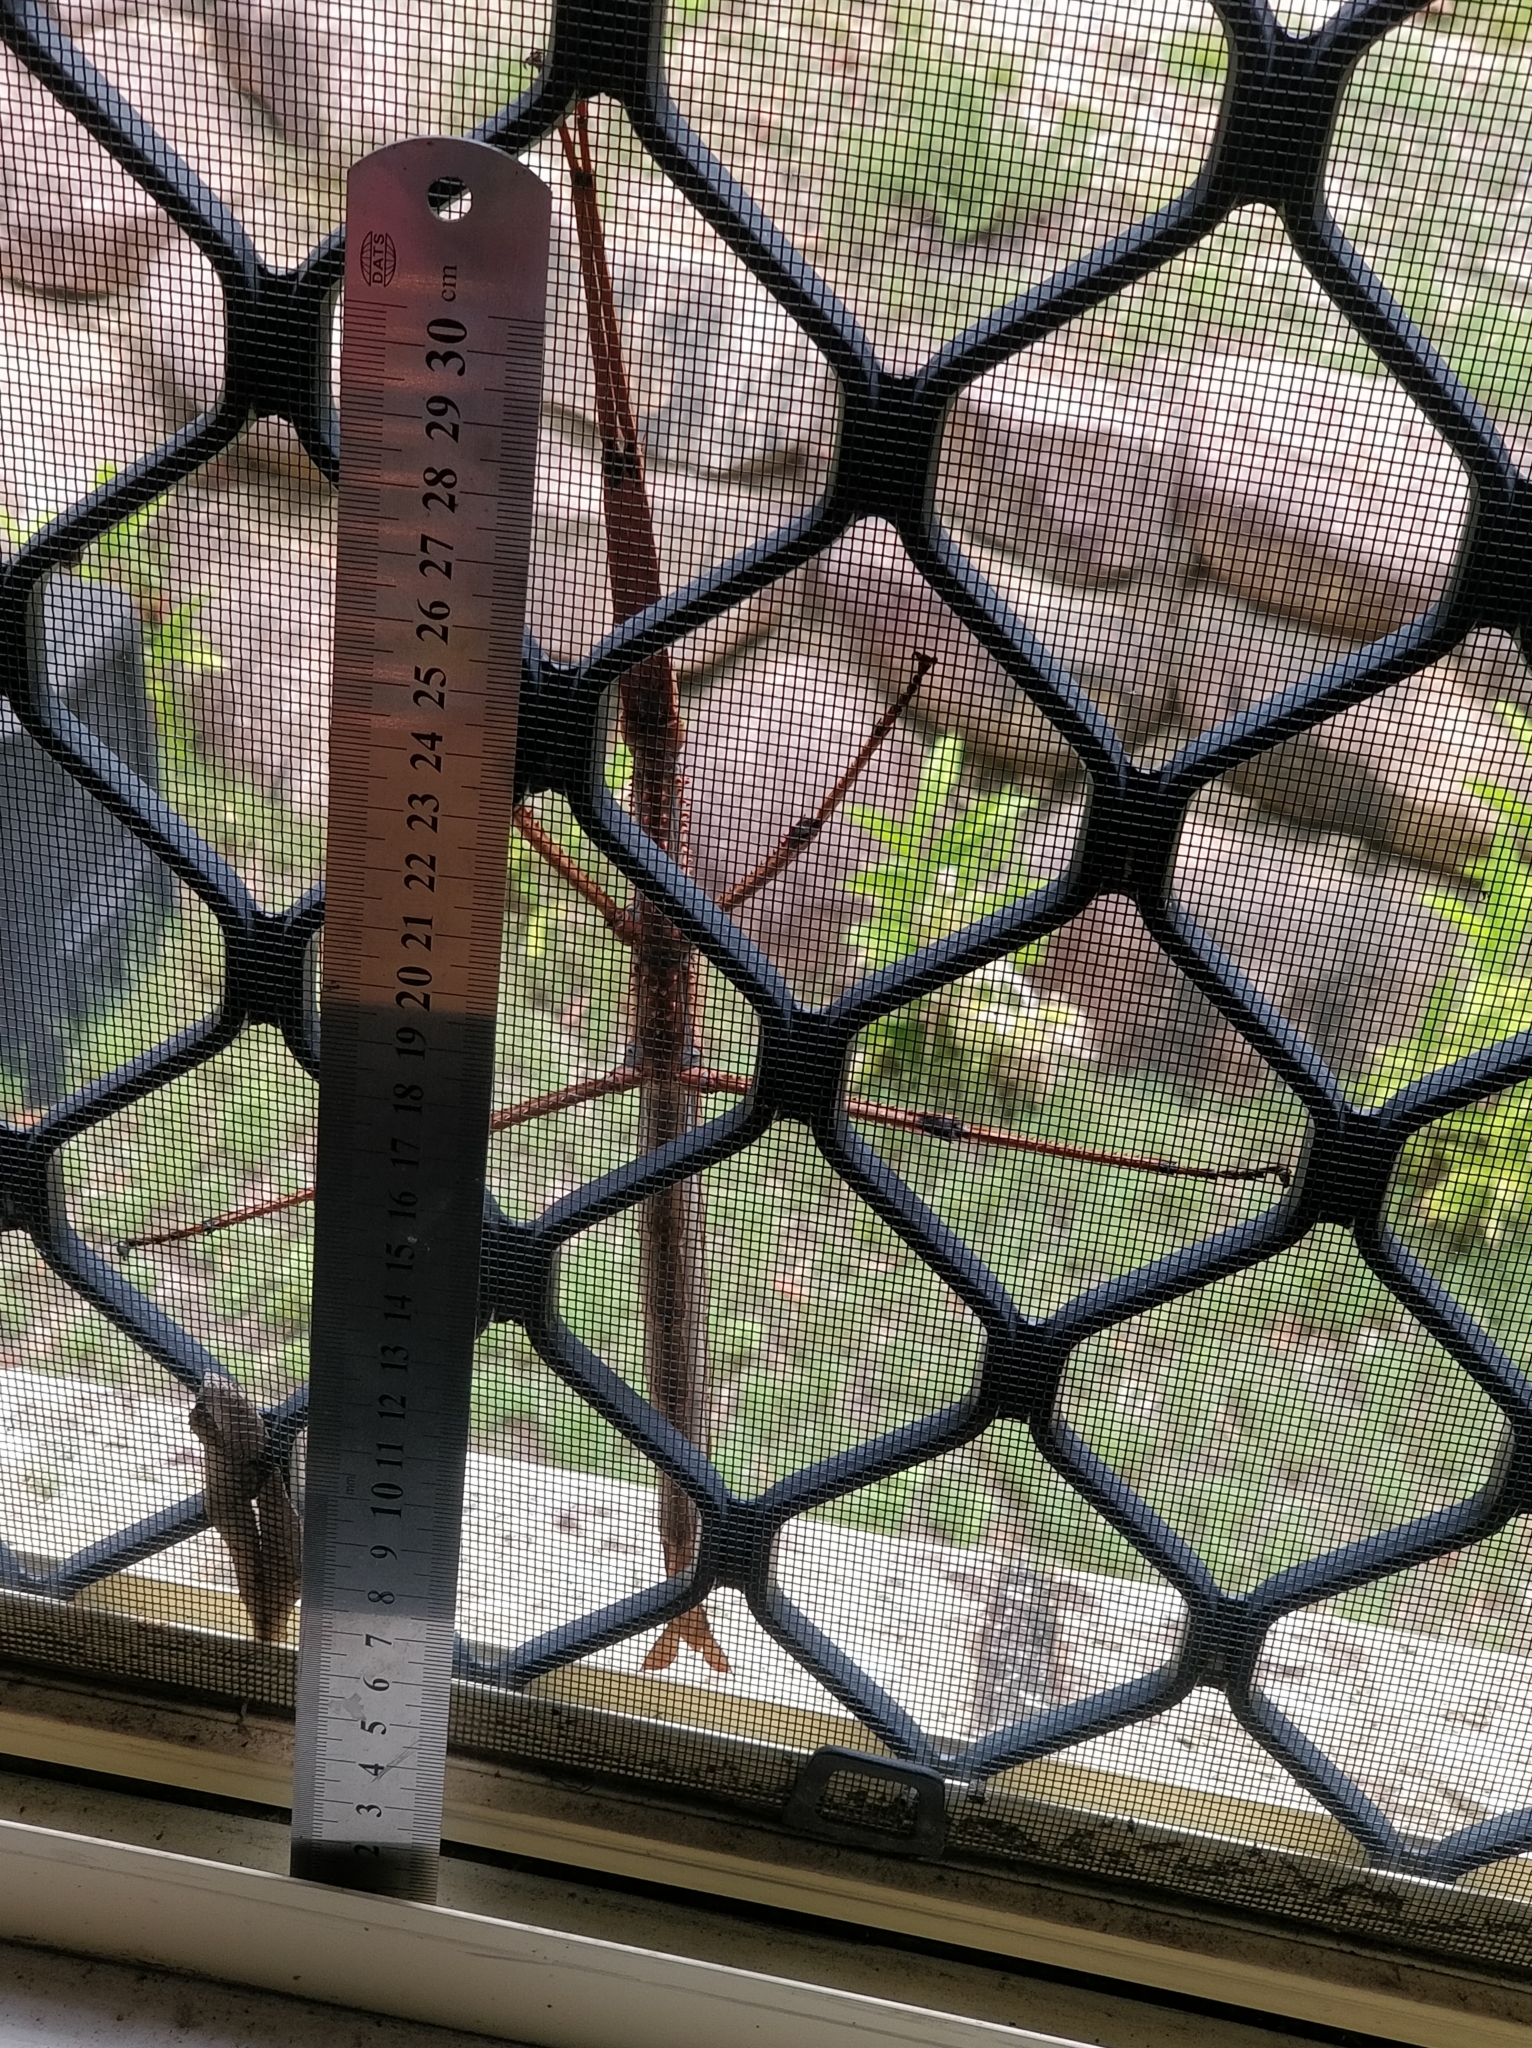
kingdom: Animalia
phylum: Arthropoda
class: Insecta
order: Phasmida
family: Phasmatidae
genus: Acrophylla
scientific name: Acrophylla enceladus
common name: Giant acrophylla stick-insect
